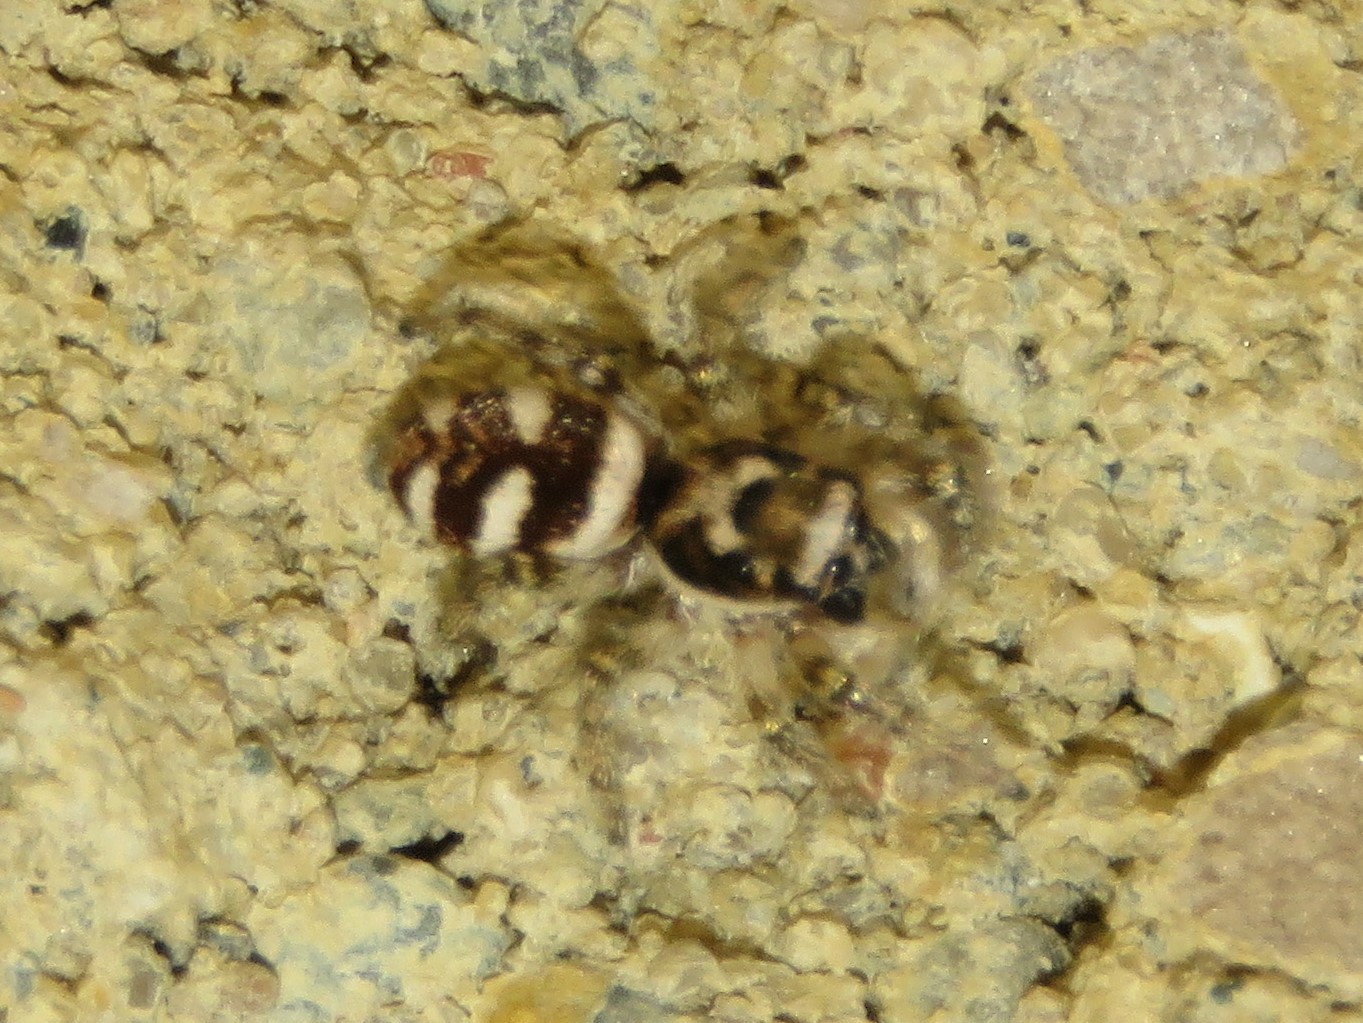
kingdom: Animalia
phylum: Arthropoda
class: Arachnida
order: Araneae
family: Salticidae
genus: Salticus
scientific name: Salticus scenicus
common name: Zebra jumper
